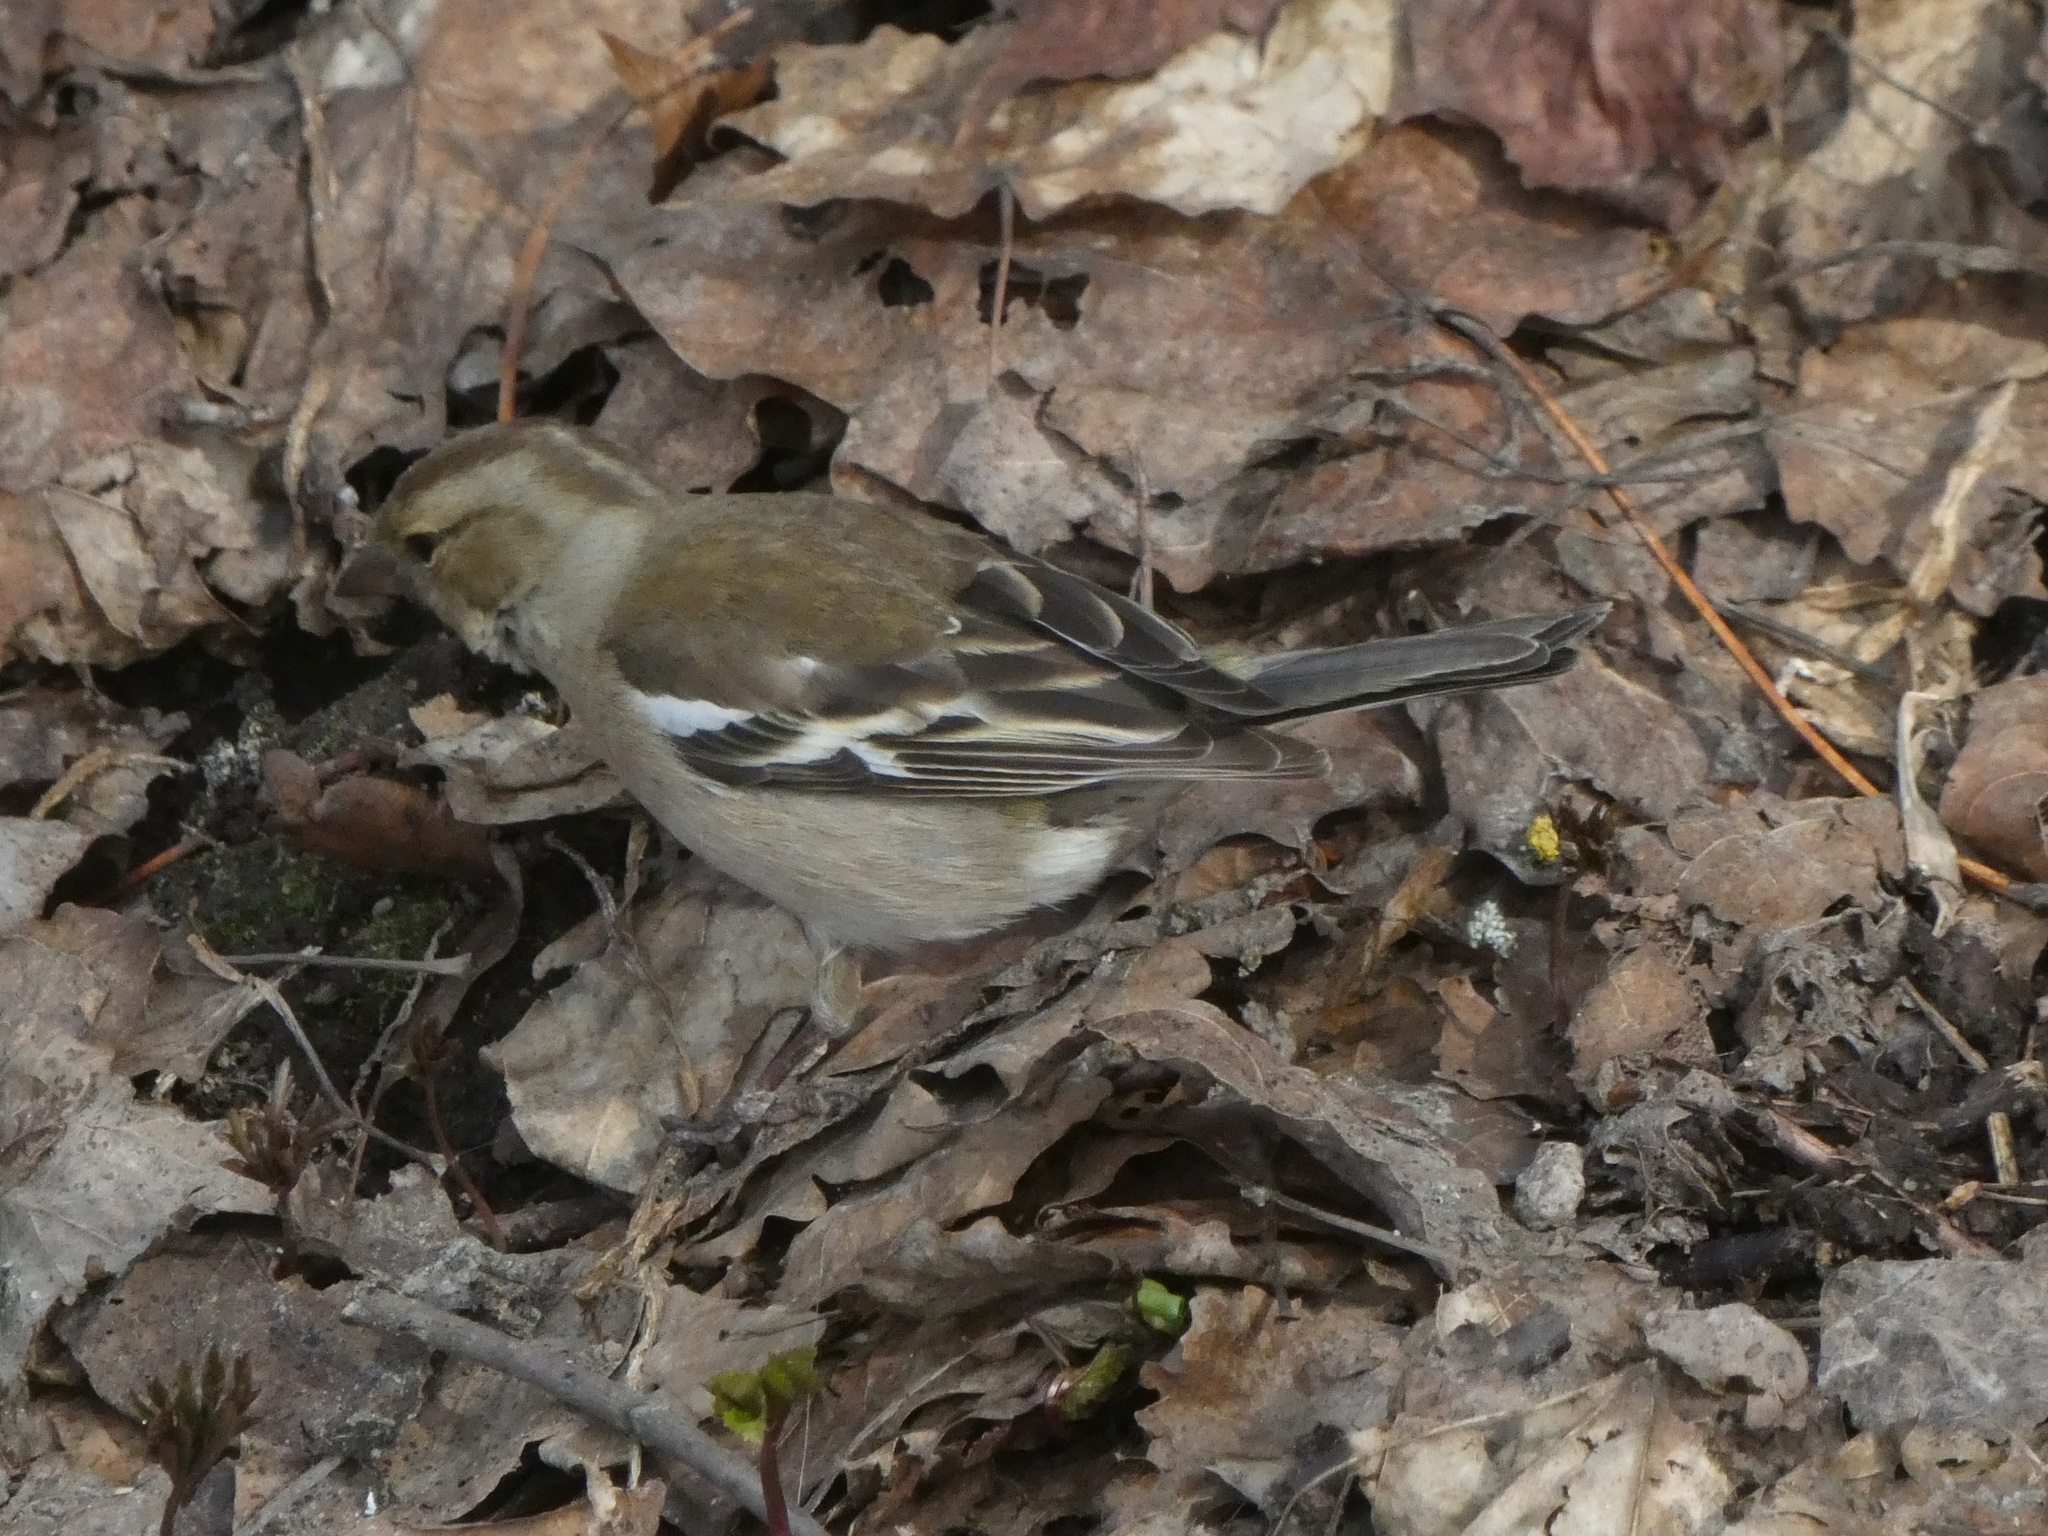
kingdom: Animalia
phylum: Chordata
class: Aves
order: Passeriformes
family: Fringillidae
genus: Fringilla
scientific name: Fringilla coelebs
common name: Common chaffinch
